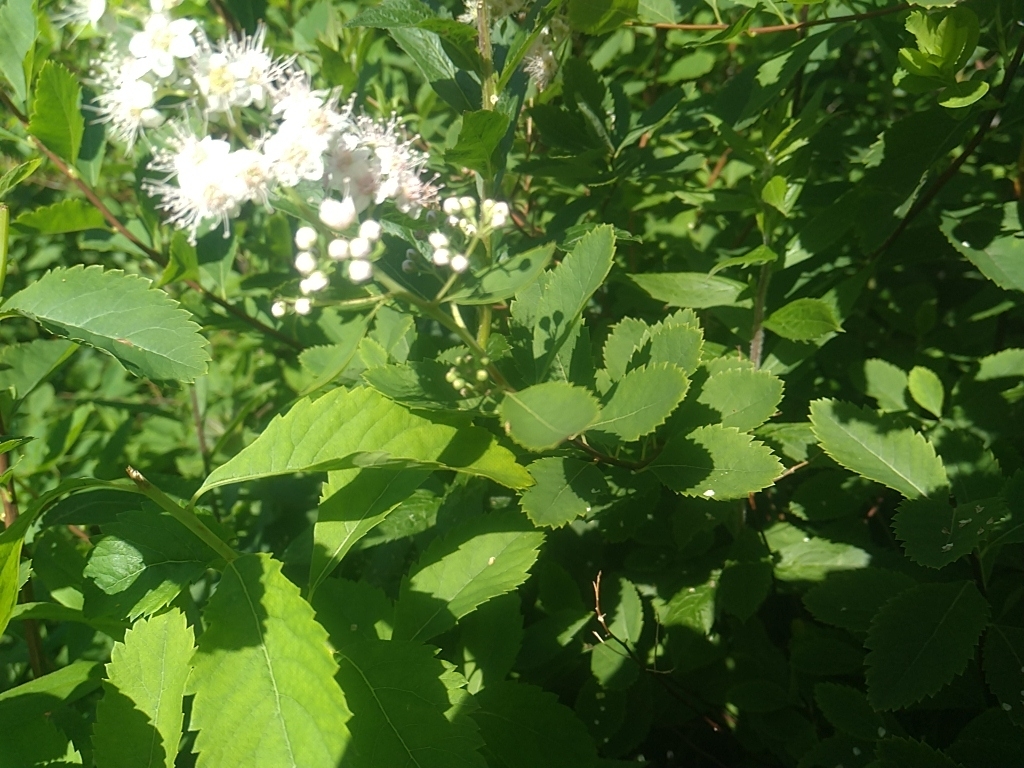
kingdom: Plantae
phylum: Tracheophyta
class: Magnoliopsida
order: Rosales
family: Rosaceae
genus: Spiraea
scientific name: Spiraea alba
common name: Pale bridewort
